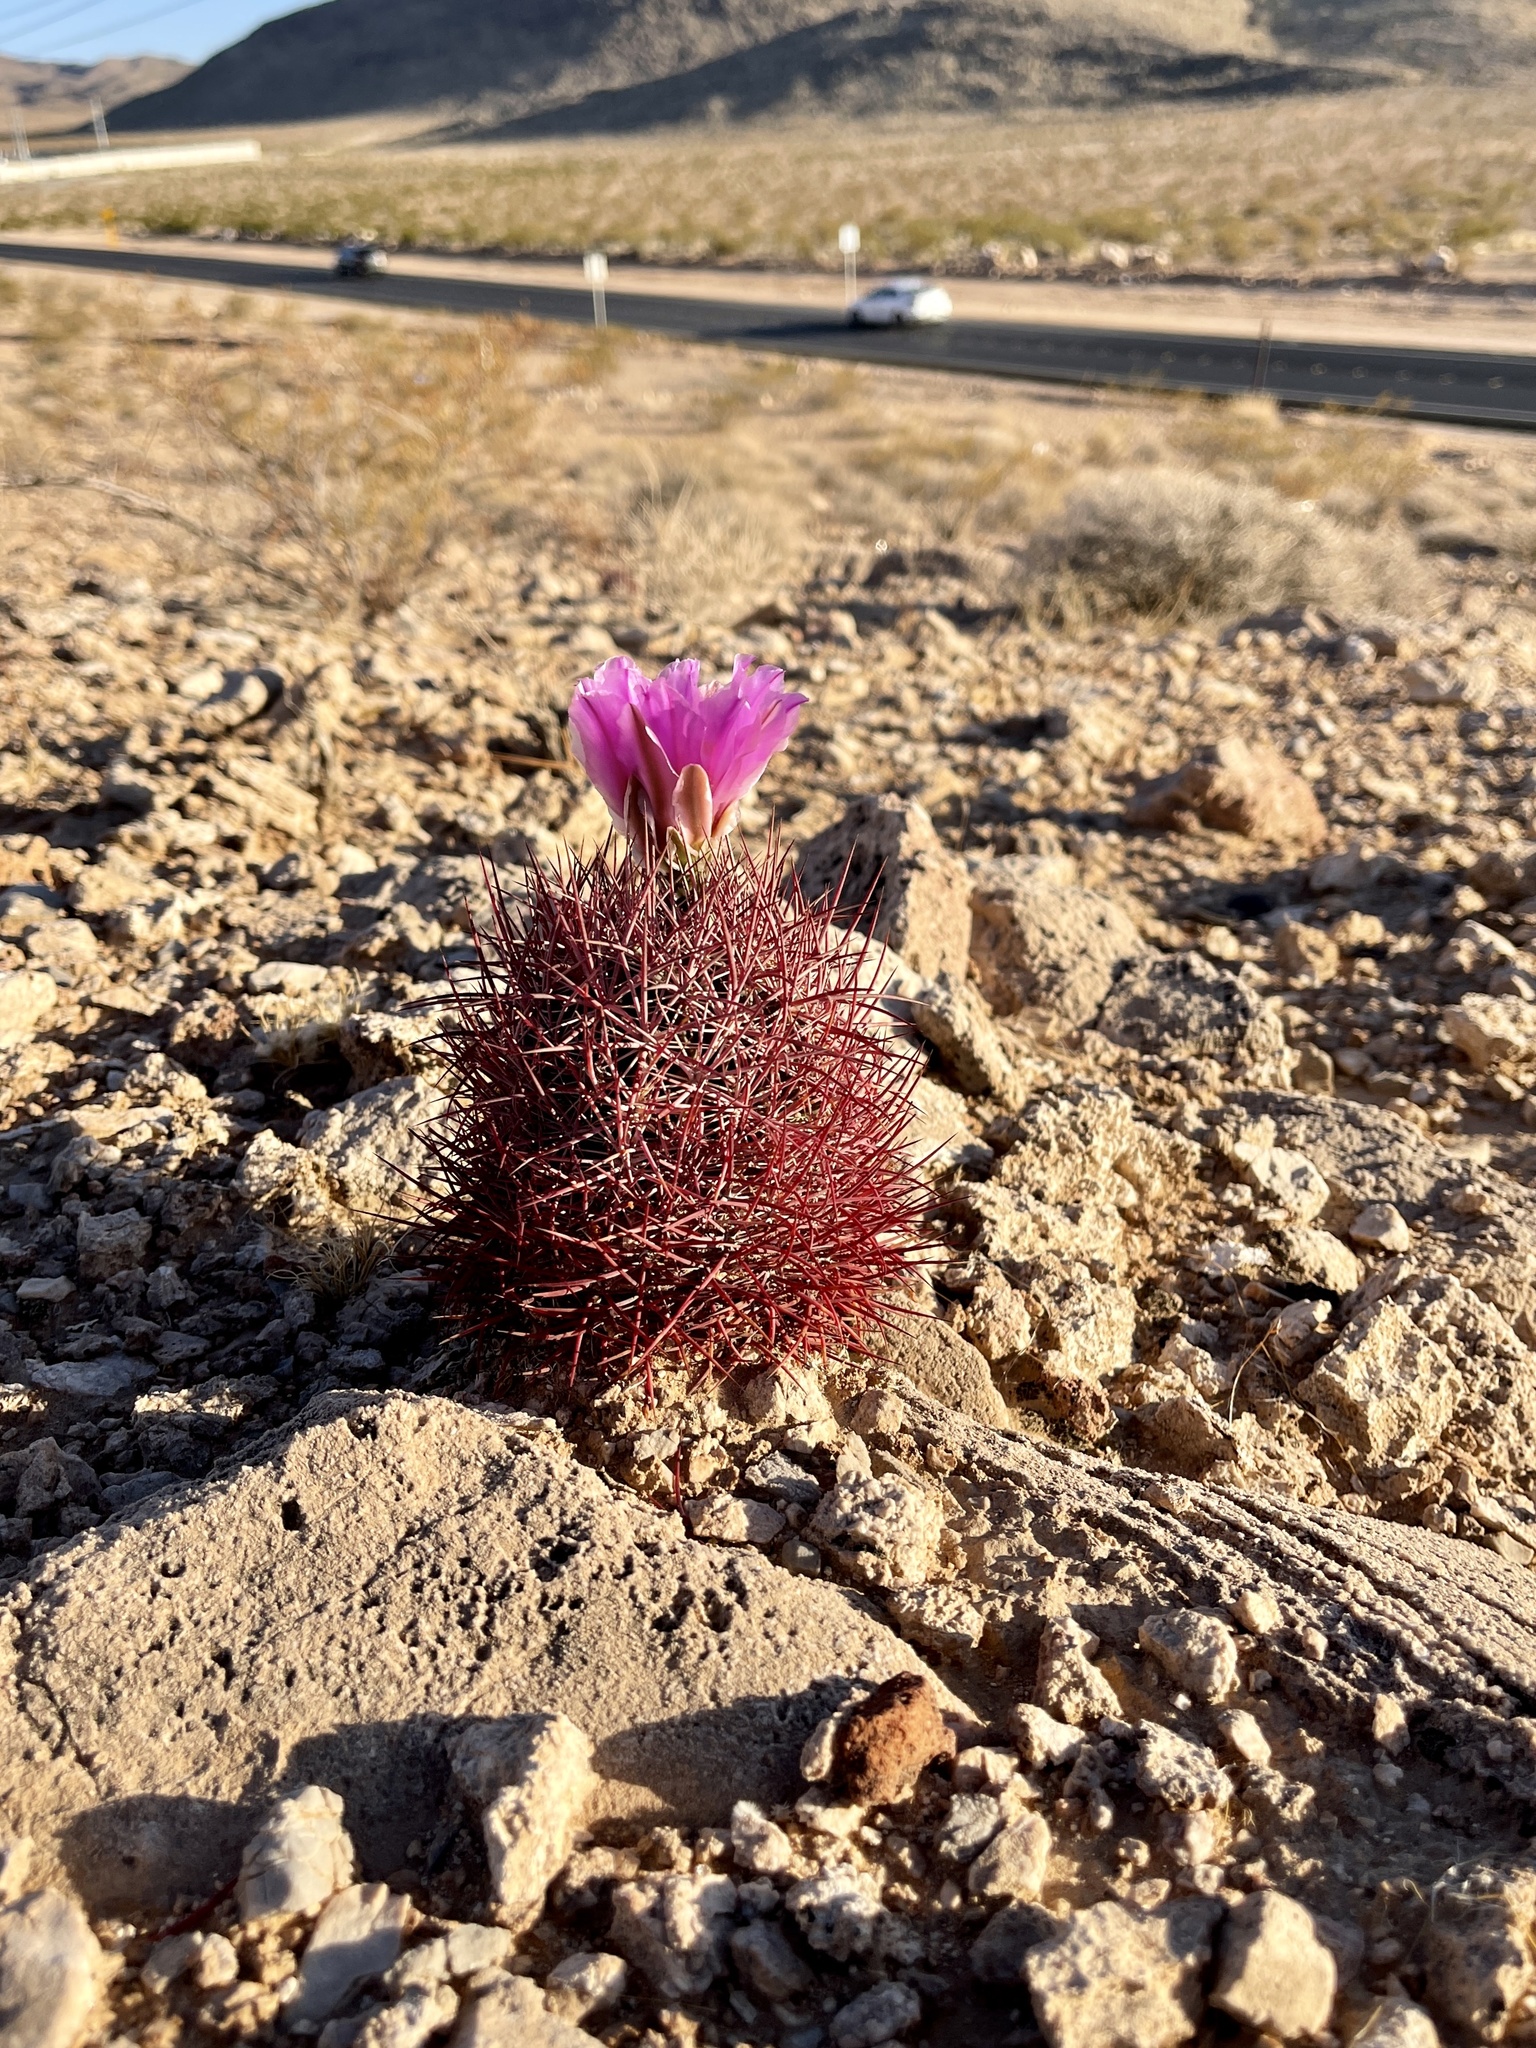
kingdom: Plantae
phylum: Tracheophyta
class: Magnoliopsida
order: Caryophyllales
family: Cactaceae
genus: Sclerocactus
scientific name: Sclerocactus johnsonii
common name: Eight-spine fishhook cactus
